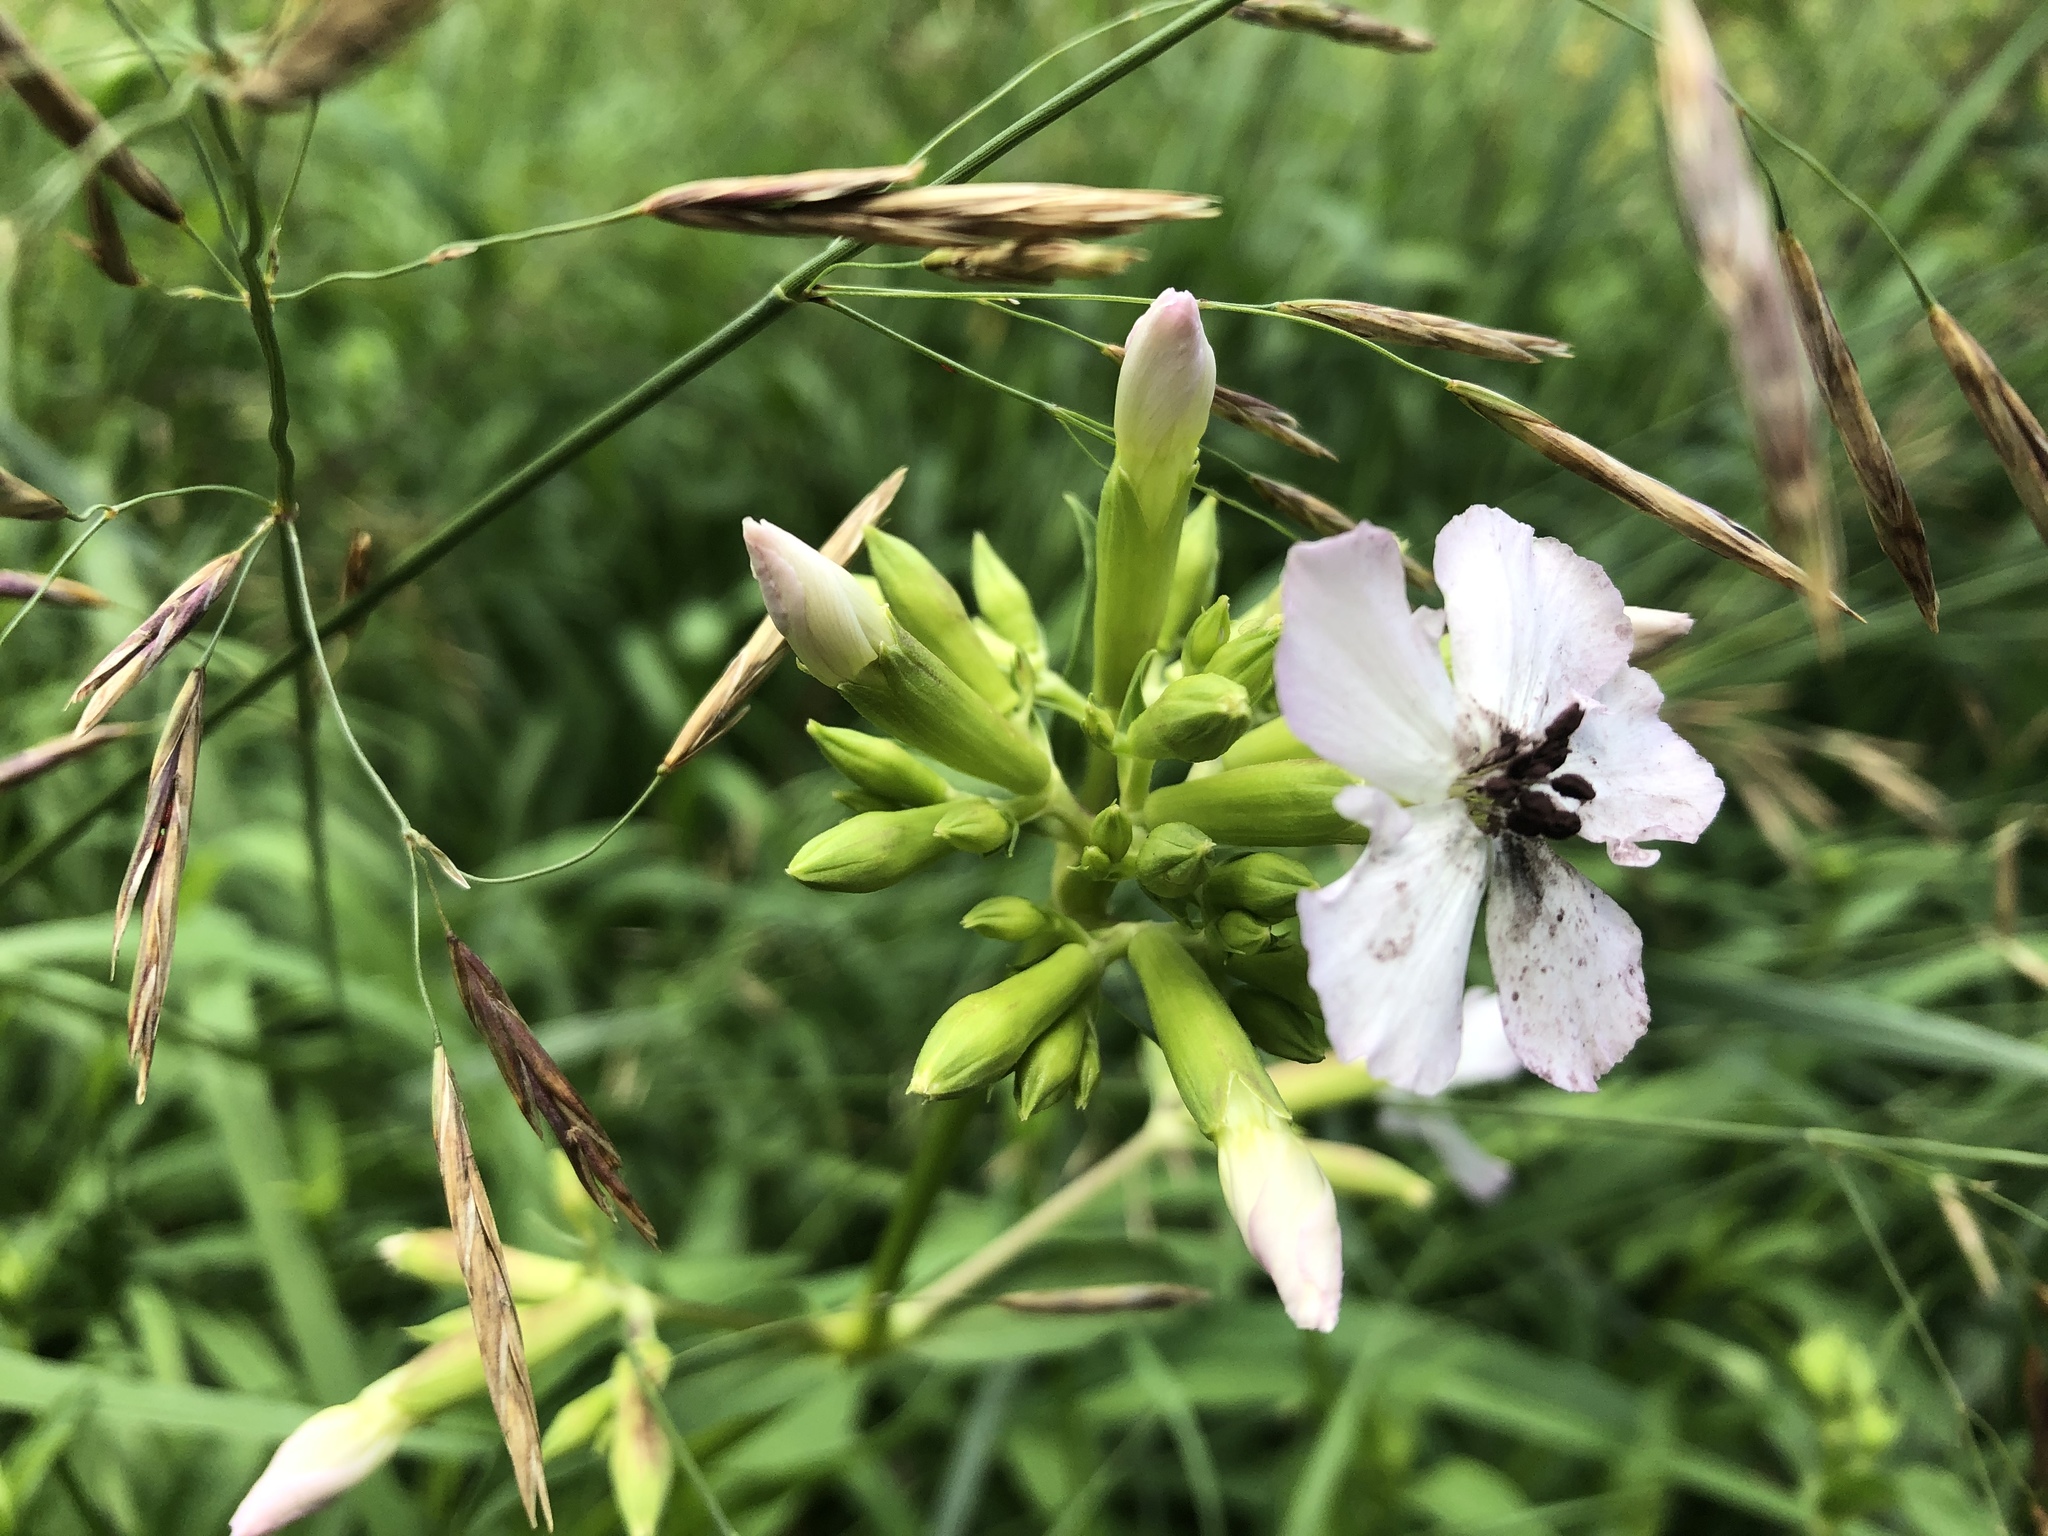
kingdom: Fungi
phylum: Basidiomycota
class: Microbotryomycetes
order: Microbotryales
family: Microbotryaceae
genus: Microbotryum
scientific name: Microbotryum saponariae
